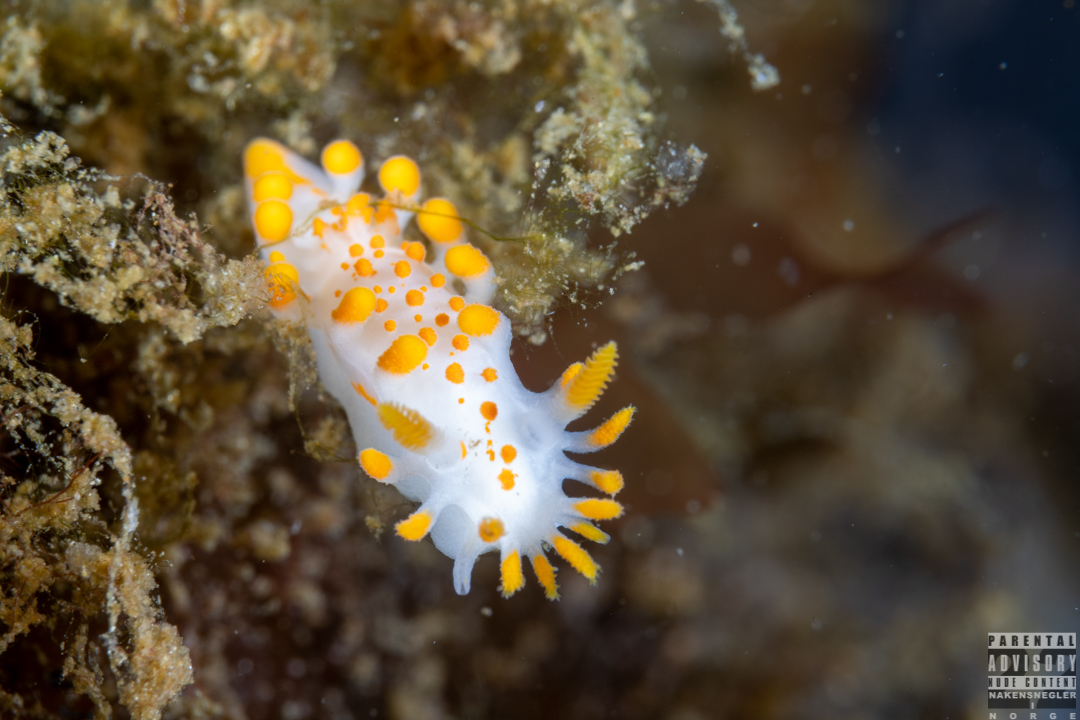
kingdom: Animalia
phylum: Mollusca
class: Gastropoda
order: Nudibranchia
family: Polyceridae
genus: Limacia
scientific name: Limacia clavigera
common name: Orange-clubbed sea slug
